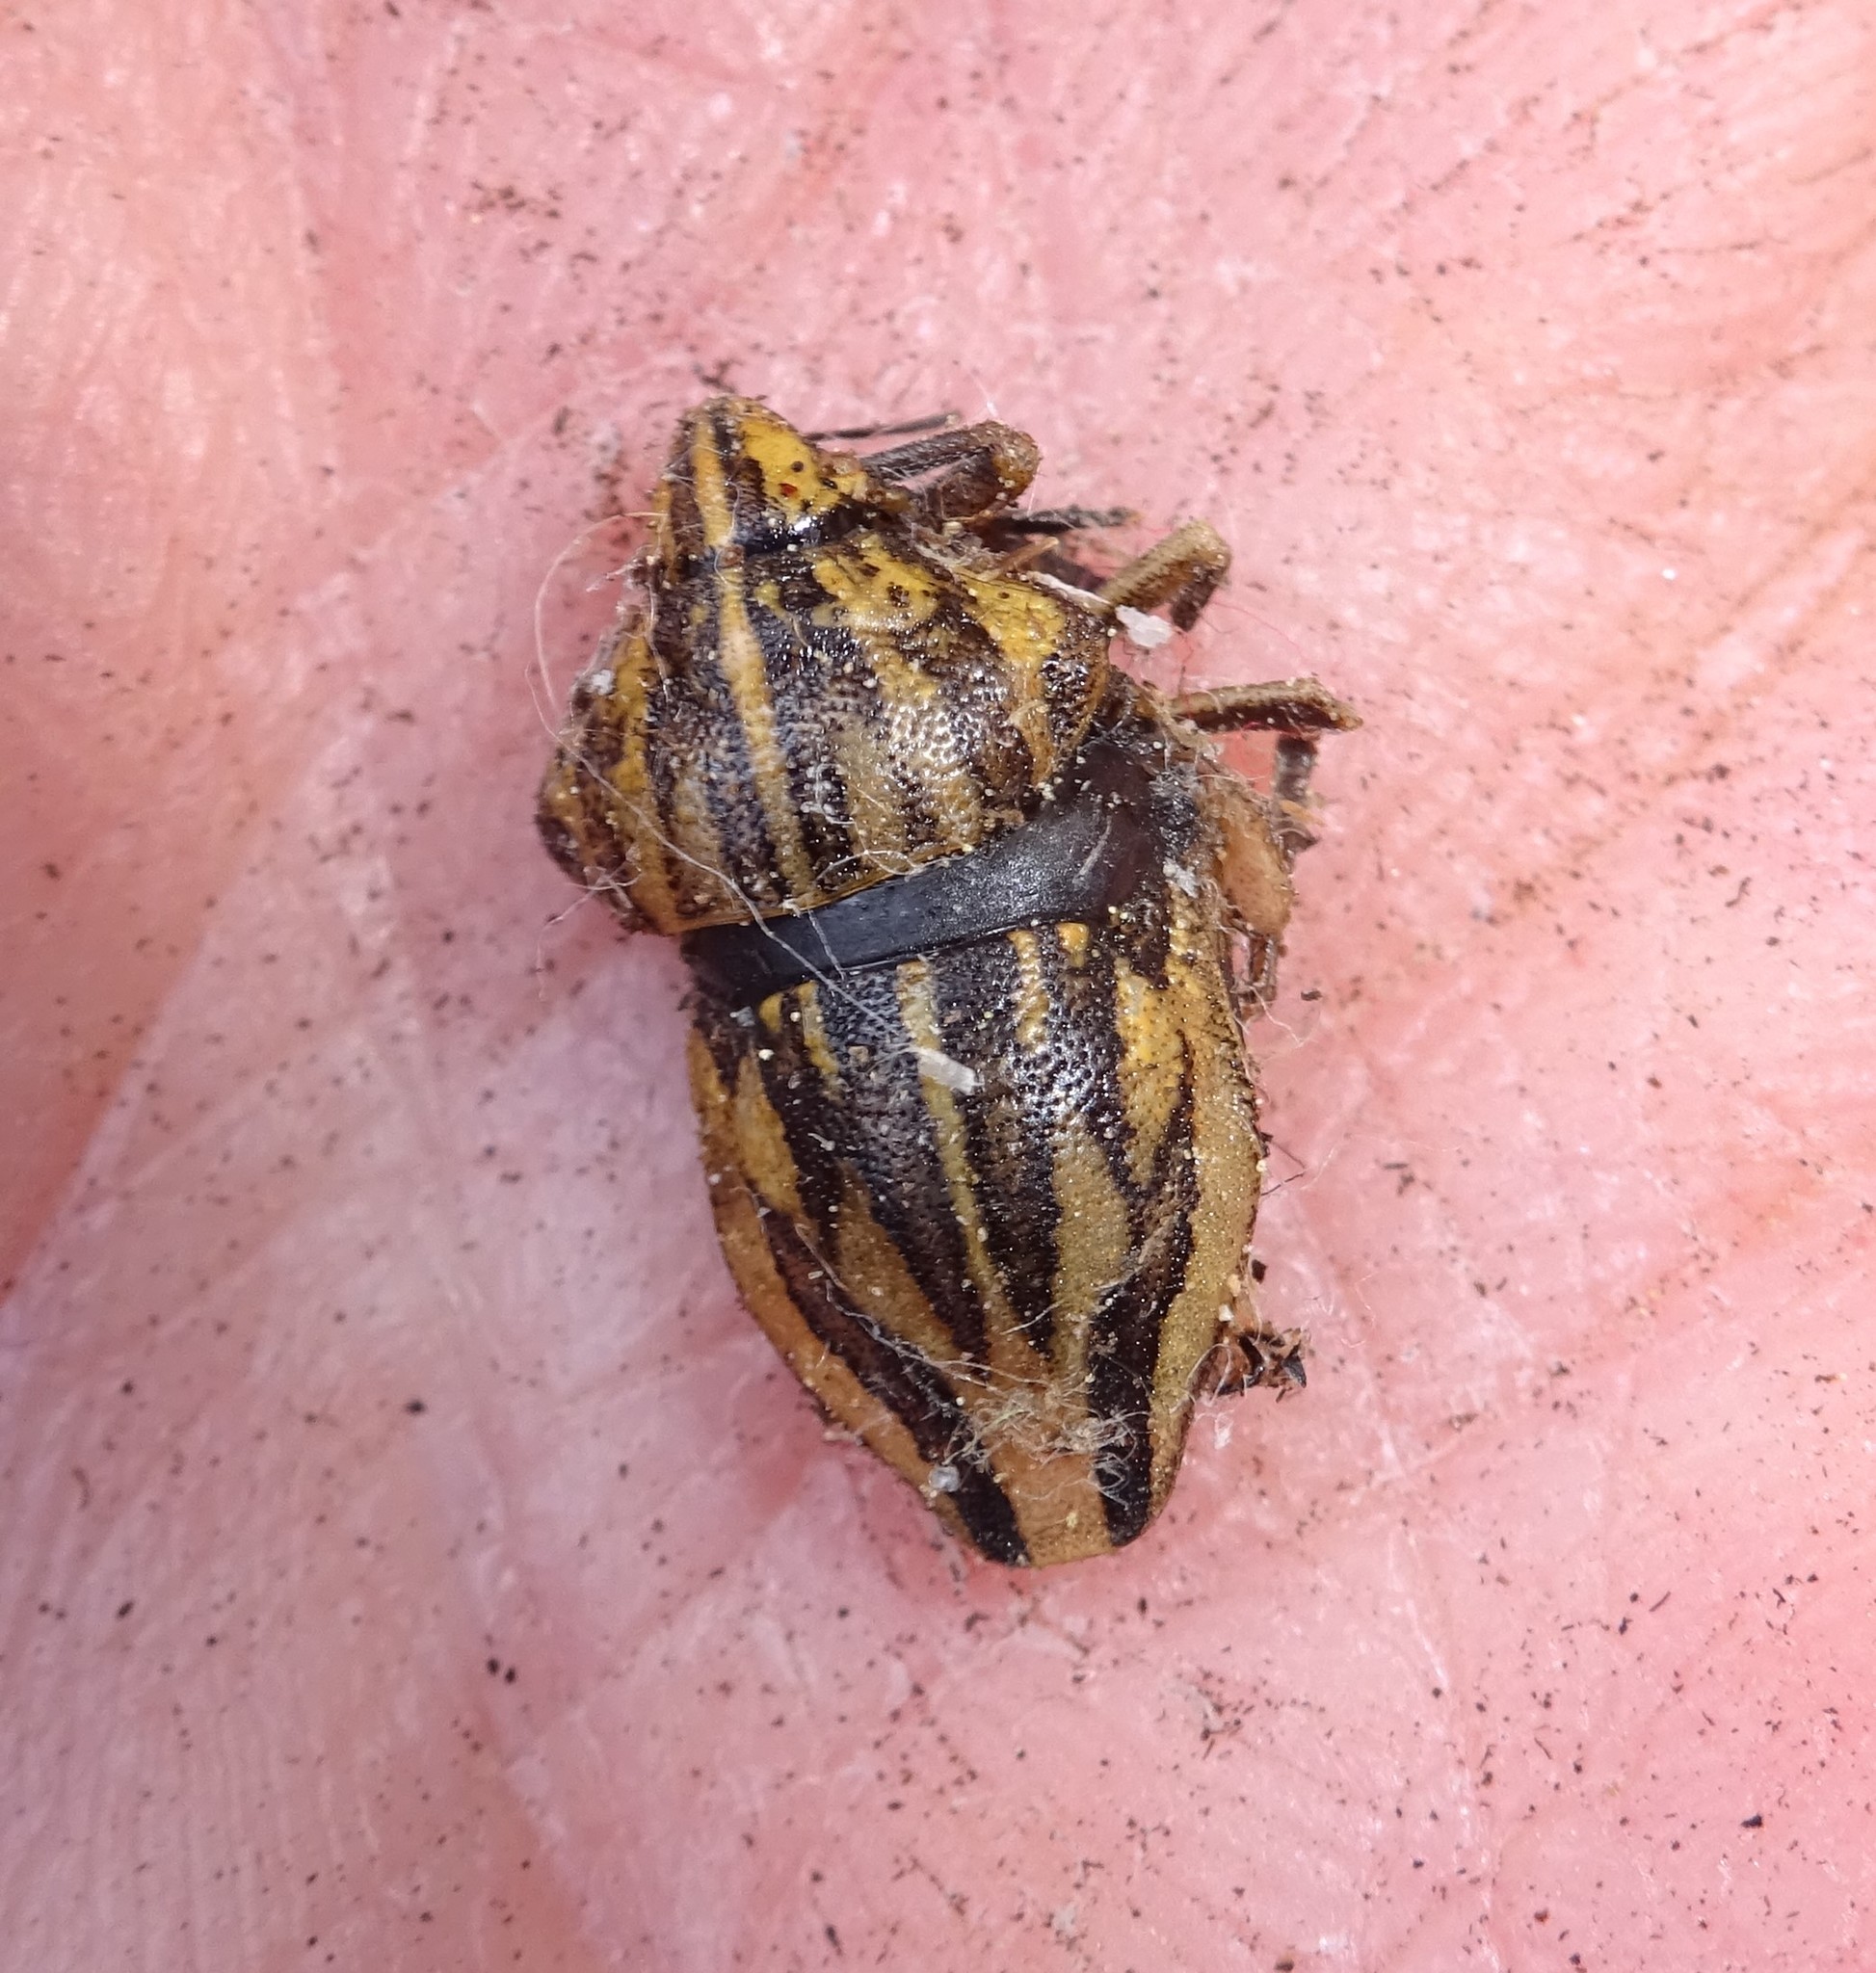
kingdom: Animalia
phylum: Arthropoda
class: Insecta
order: Hemiptera
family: Scutelleridae
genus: Odontotarsus
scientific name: Odontotarsus purpureolineatus
